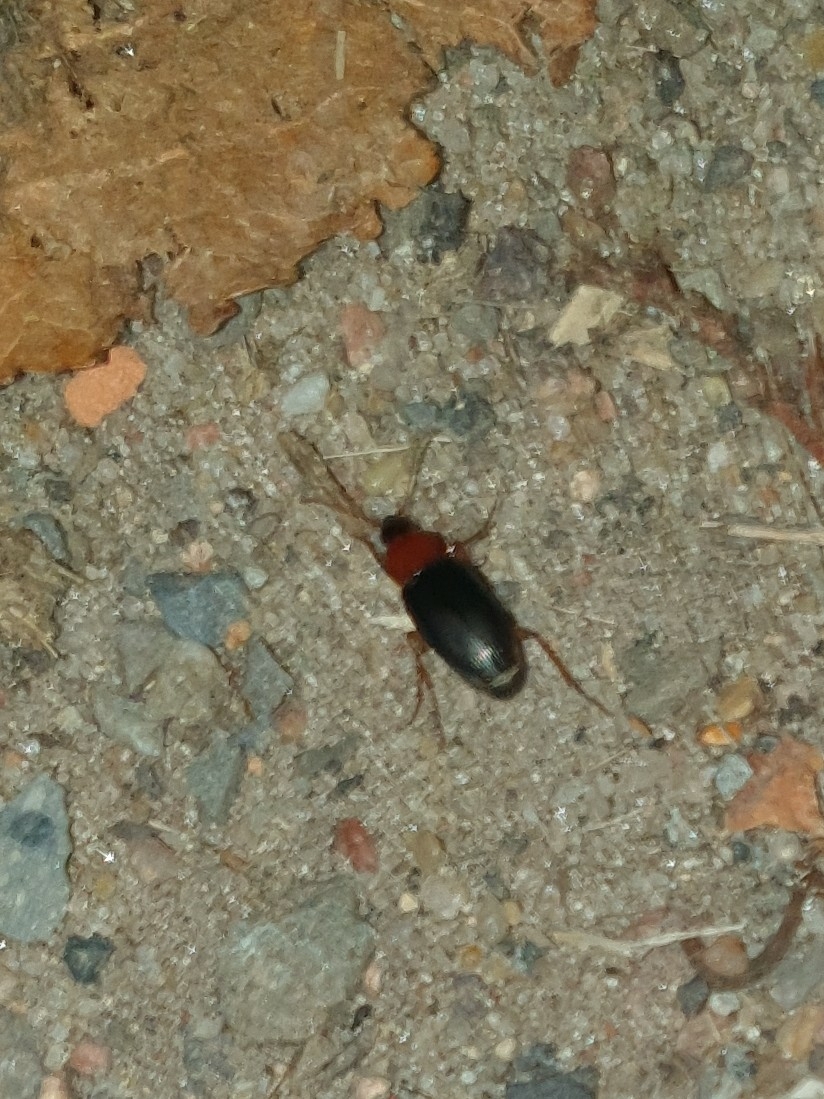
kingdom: Animalia
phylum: Arthropoda
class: Insecta
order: Coleoptera
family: Carabidae
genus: Calathus
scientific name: Calathus melanocephalus
